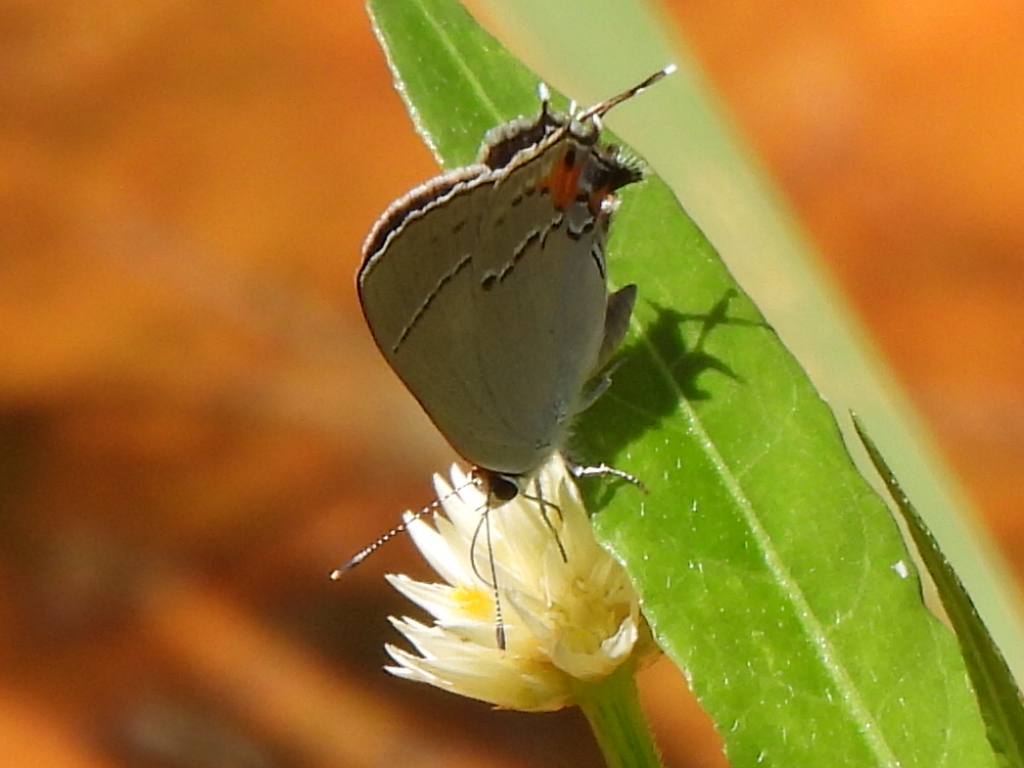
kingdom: Animalia
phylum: Arthropoda
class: Insecta
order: Lepidoptera
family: Lycaenidae
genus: Strymon
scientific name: Strymon melinus
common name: Gray hairstreak
